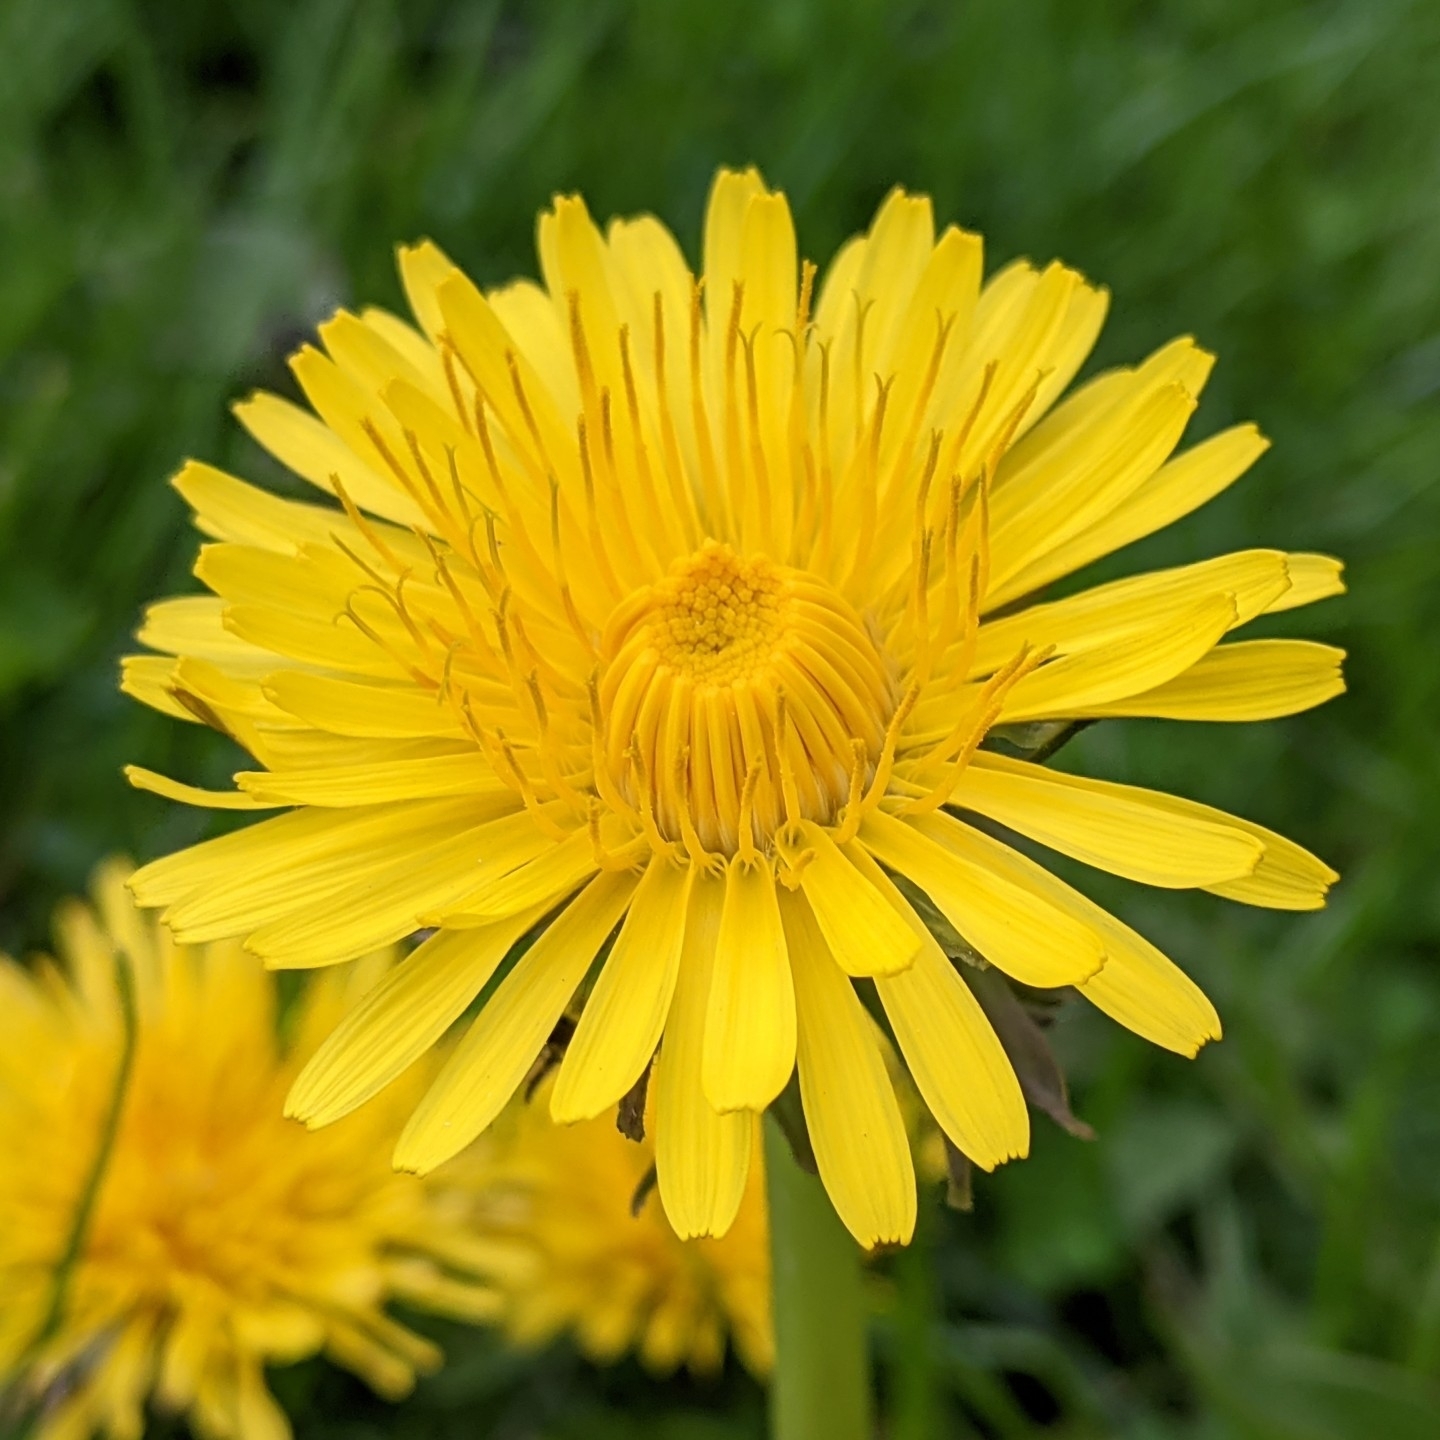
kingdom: Plantae
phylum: Tracheophyta
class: Magnoliopsida
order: Asterales
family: Asteraceae
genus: Taraxacum
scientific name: Taraxacum officinale
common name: Common dandelion
